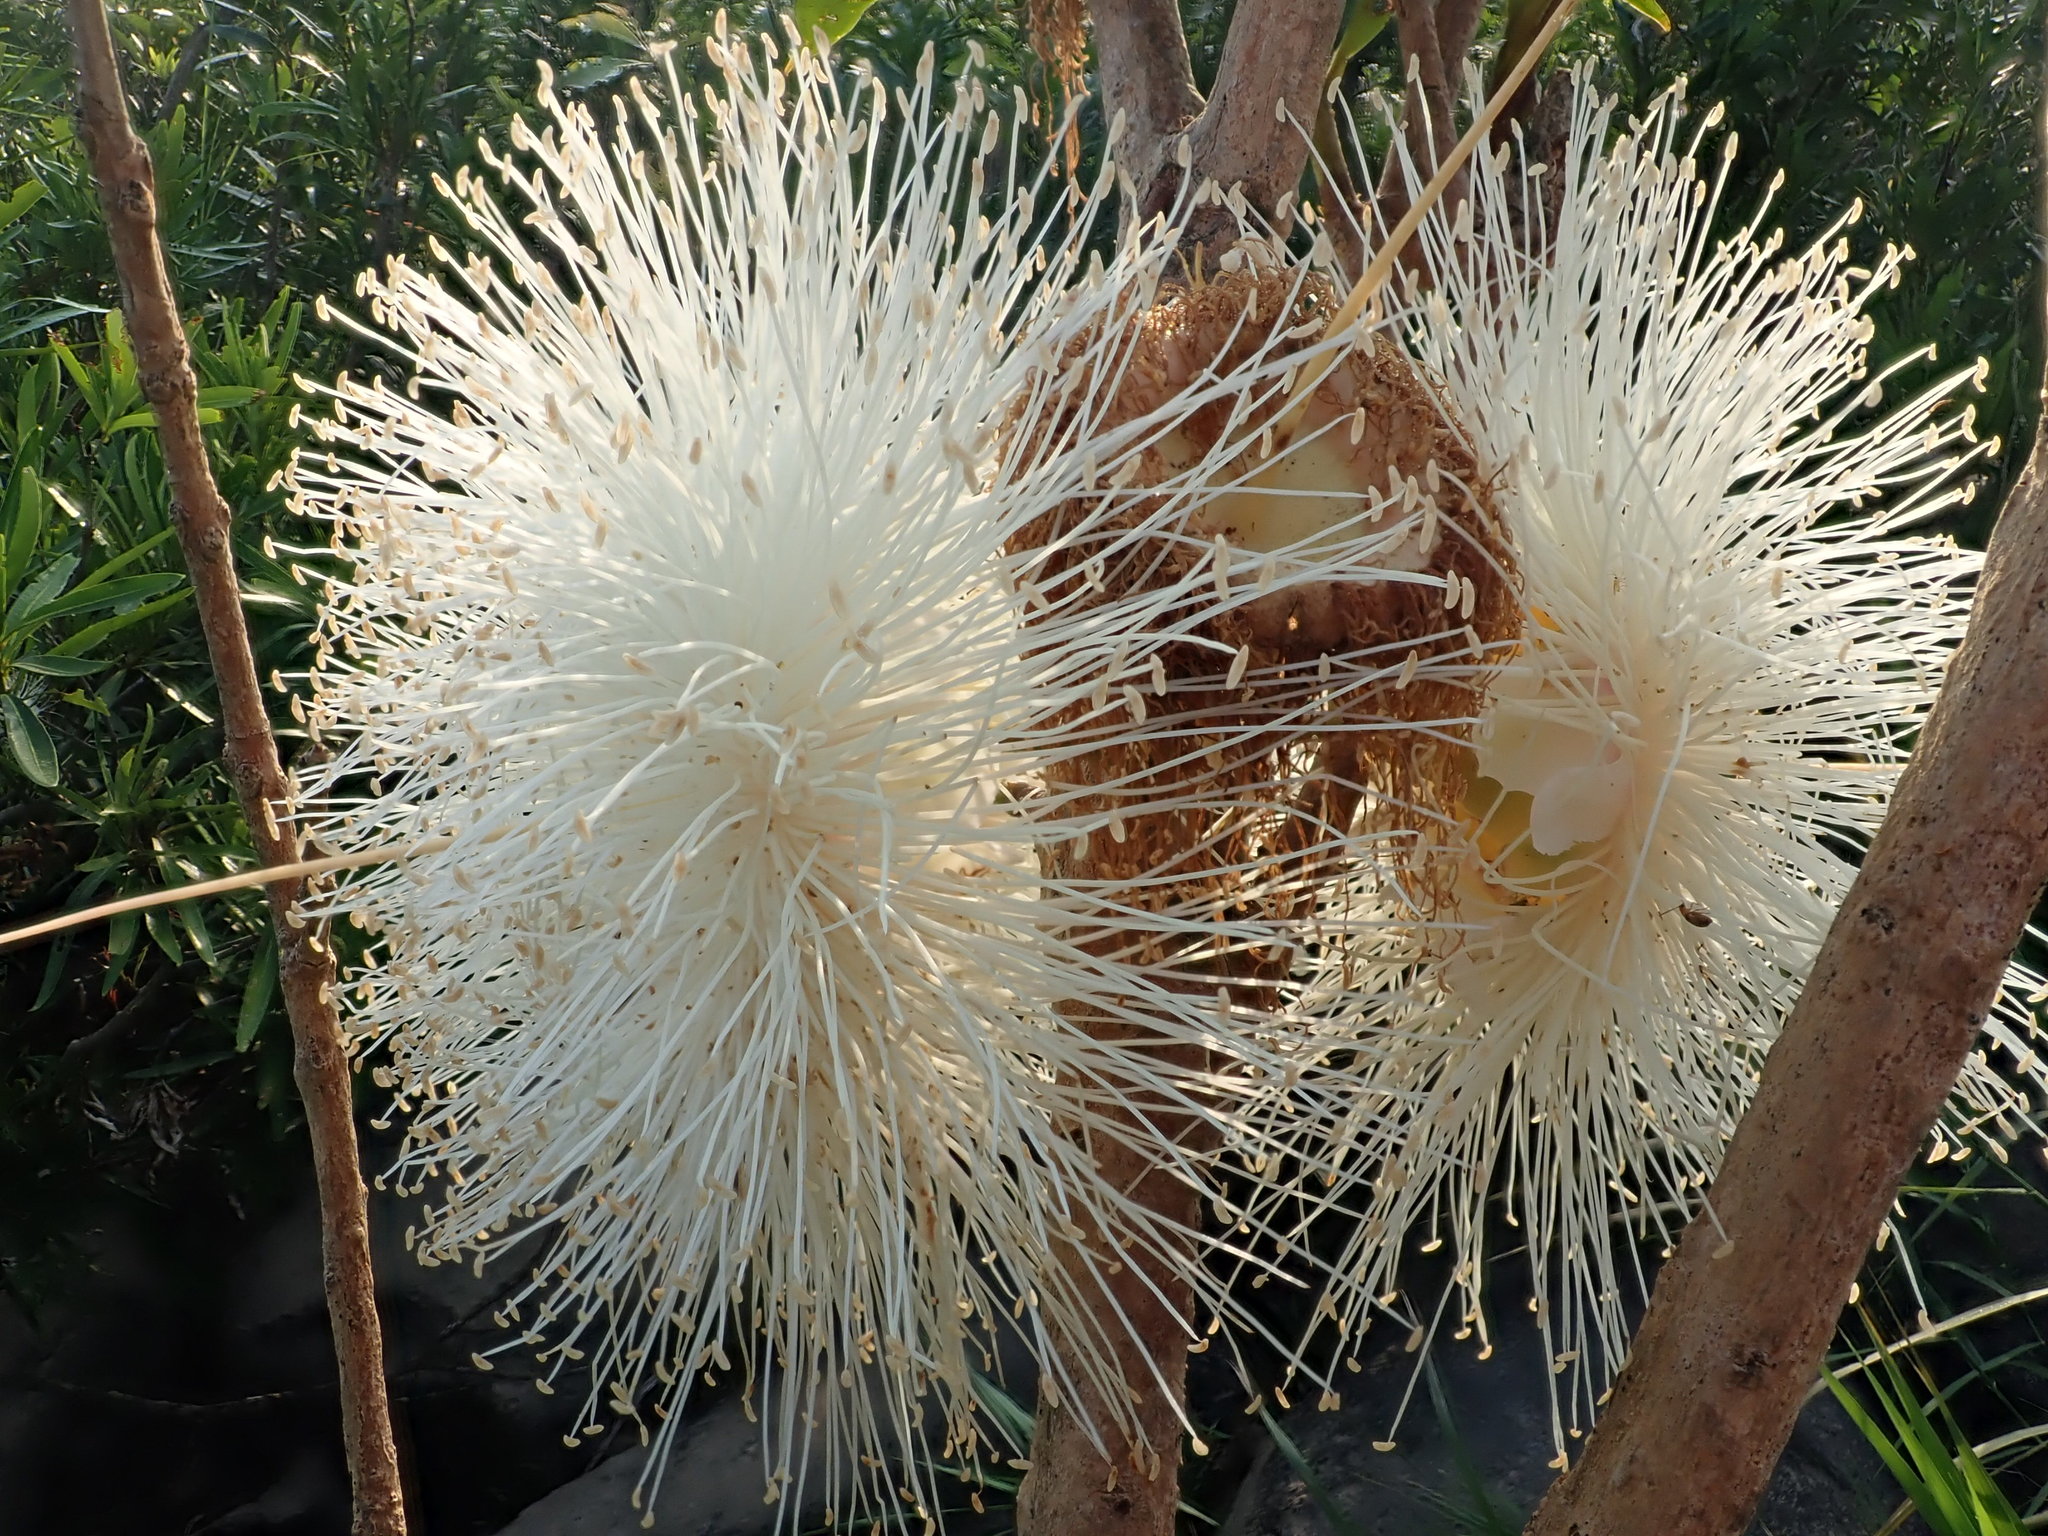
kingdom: Plantae
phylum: Tracheophyta
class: Magnoliopsida
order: Myrtales
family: Myrtaceae
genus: Syzygium
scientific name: Syzygium samarangense
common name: Semarang rose-apple
